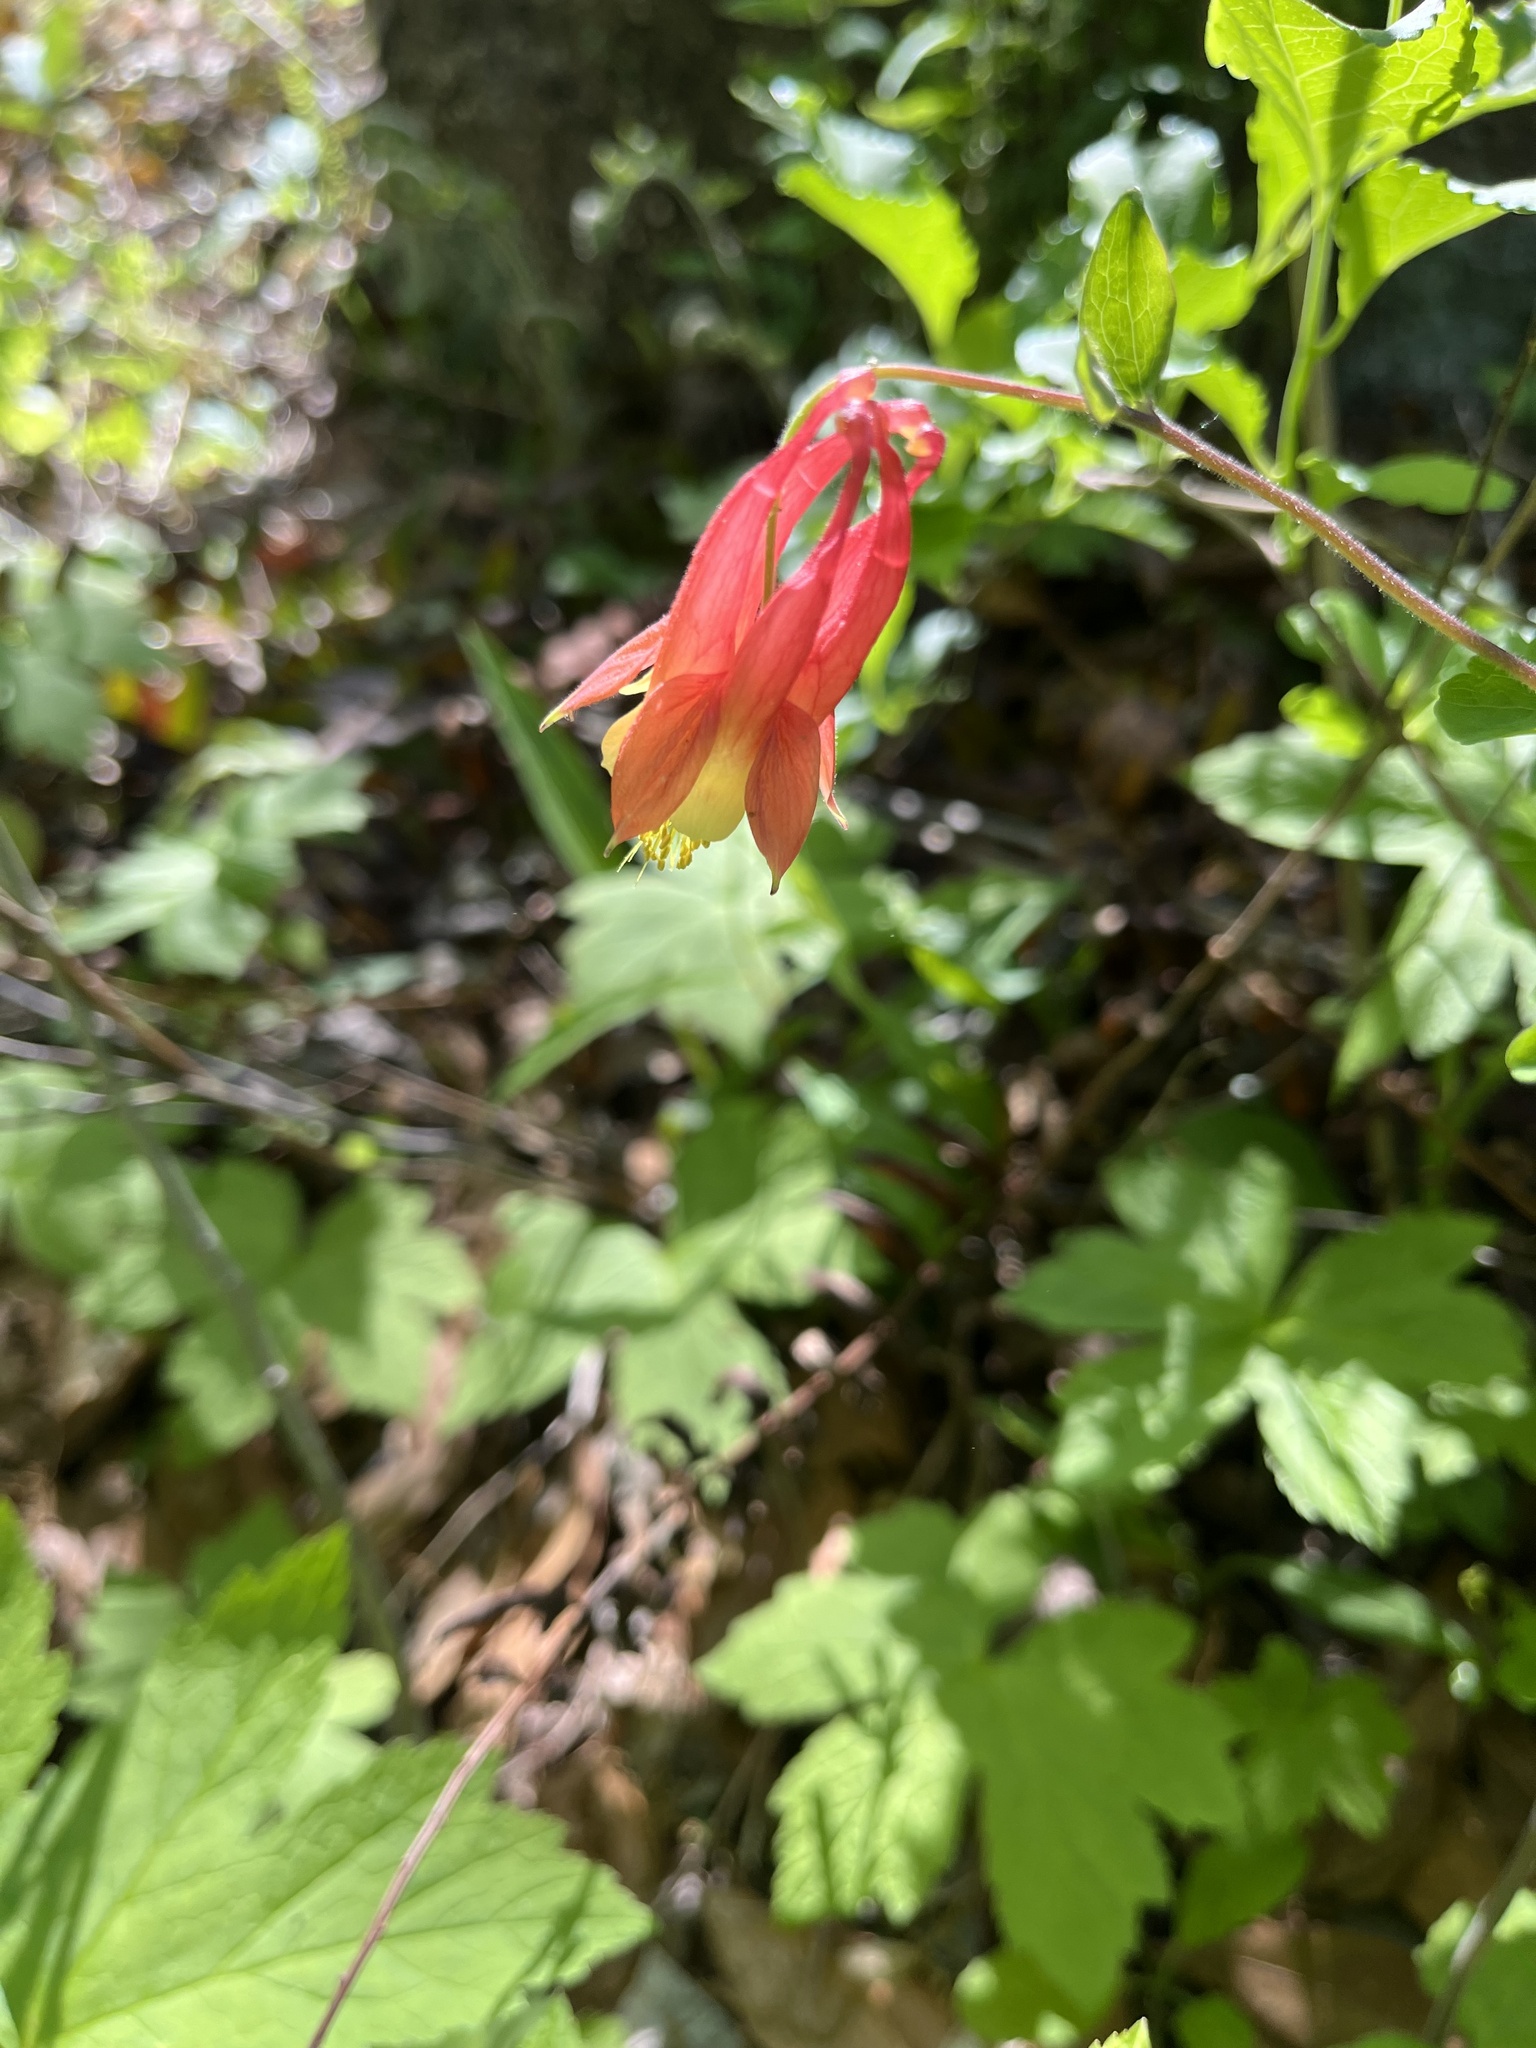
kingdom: Plantae
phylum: Tracheophyta
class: Magnoliopsida
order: Ranunculales
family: Ranunculaceae
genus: Aquilegia
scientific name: Aquilegia canadensis
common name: American columbine
